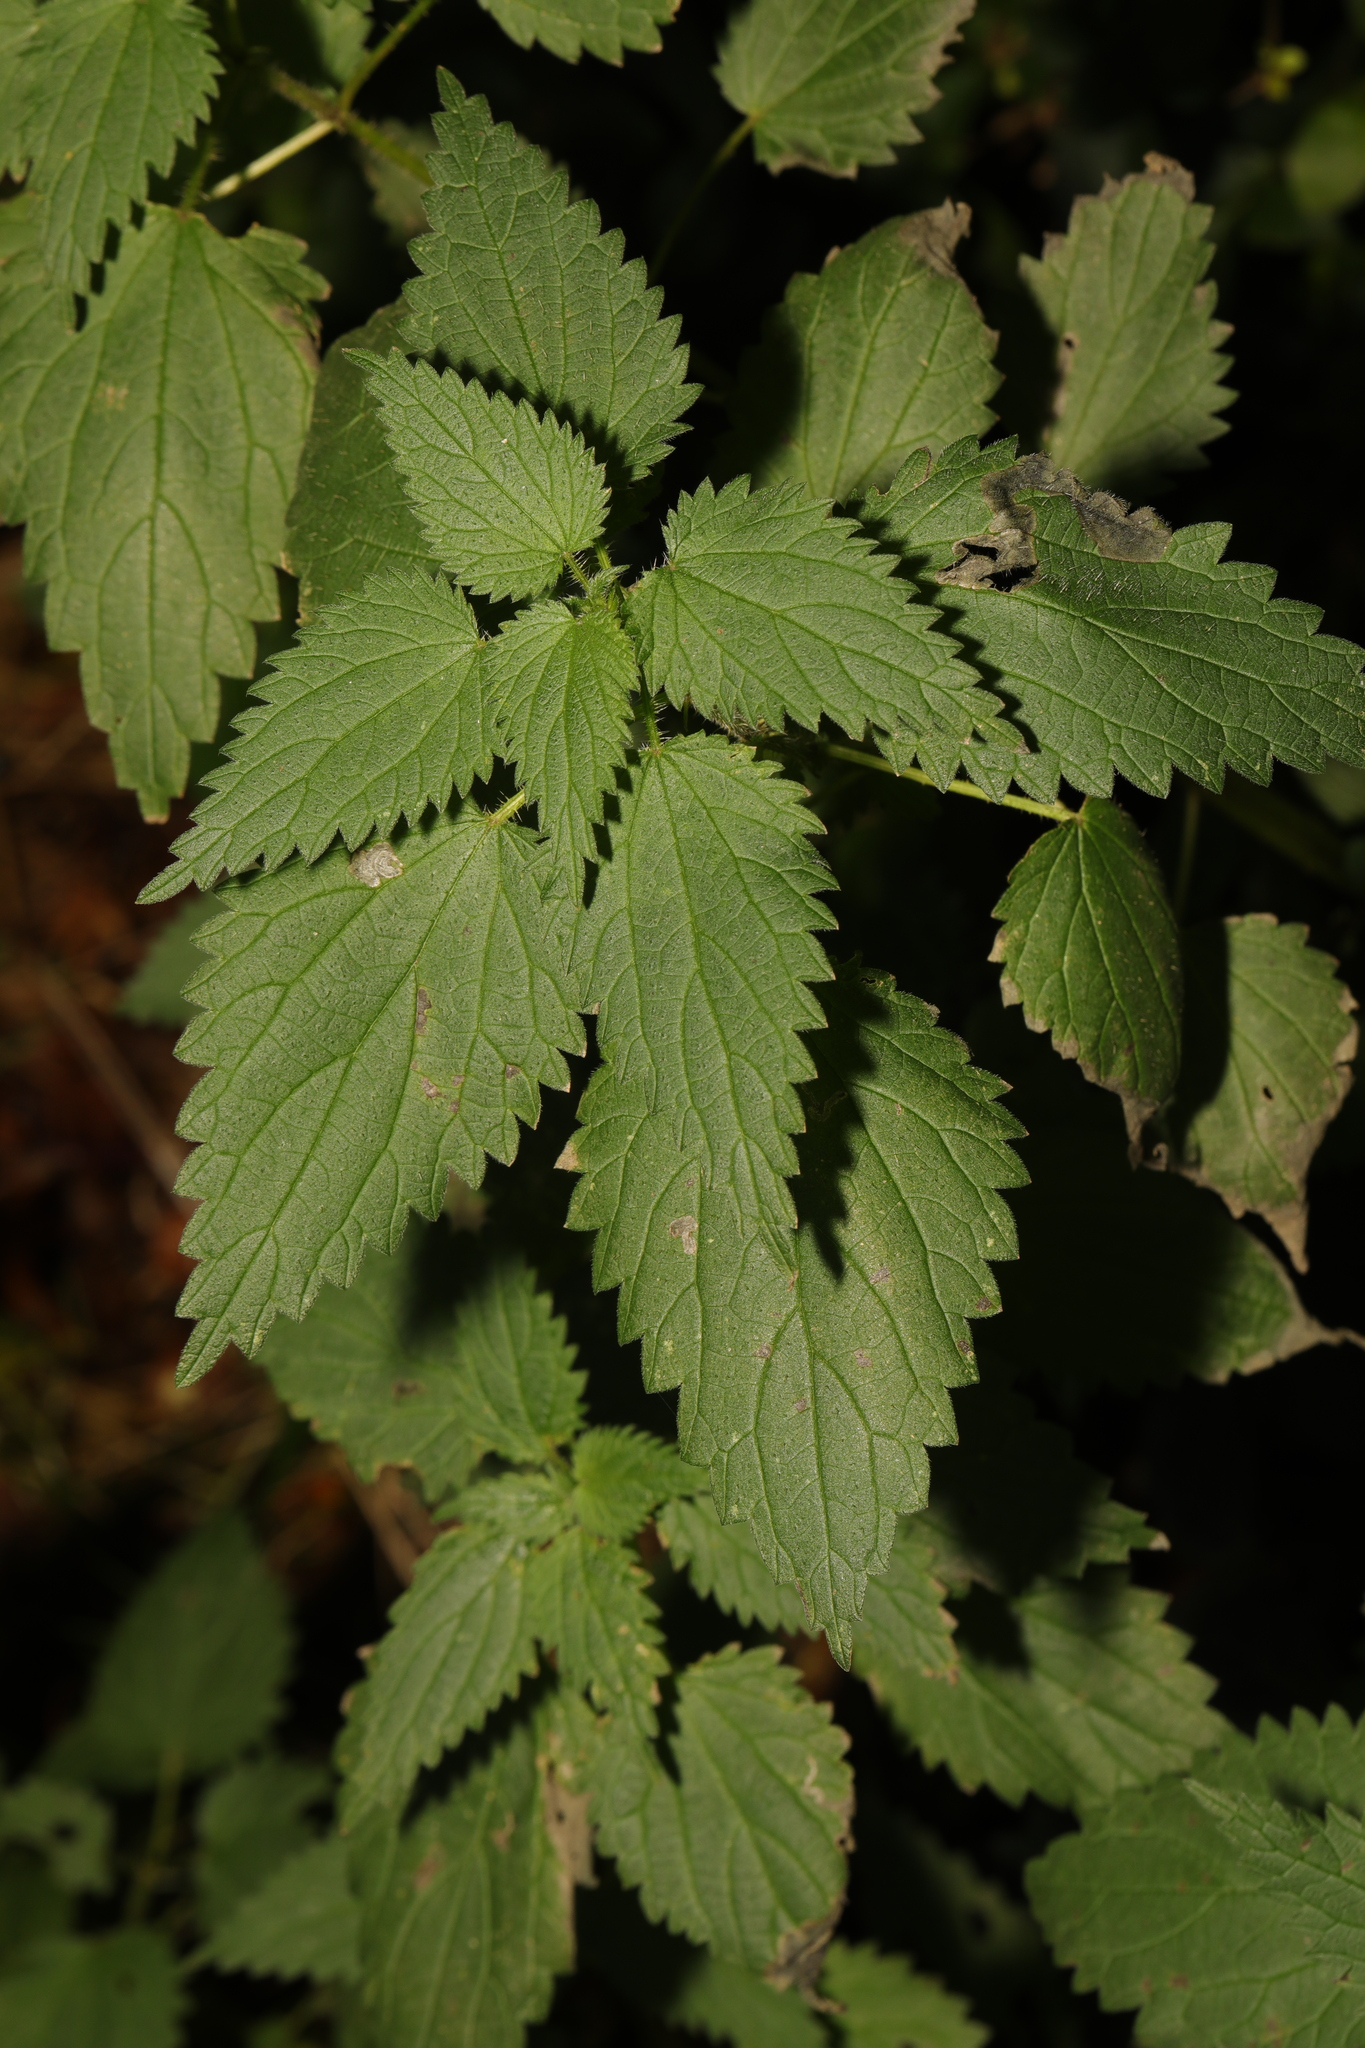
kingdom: Plantae
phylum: Tracheophyta
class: Magnoliopsida
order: Rosales
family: Urticaceae
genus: Urtica
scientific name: Urtica dioica
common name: Common nettle
